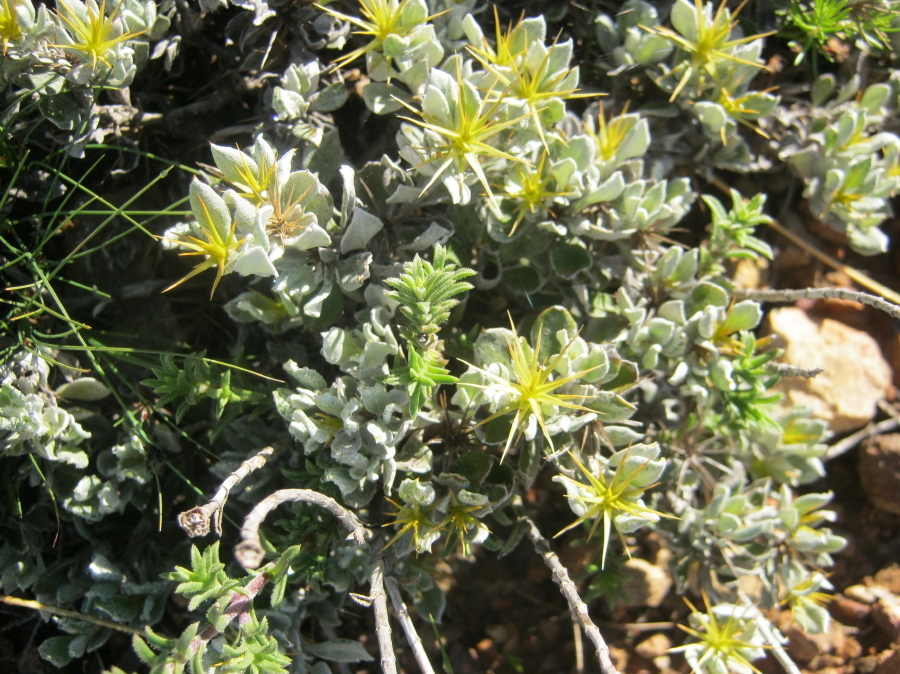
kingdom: Plantae
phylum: Tracheophyta
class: Magnoliopsida
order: Asterales
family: Asteraceae
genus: Macledium
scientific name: Macledium spinosum
